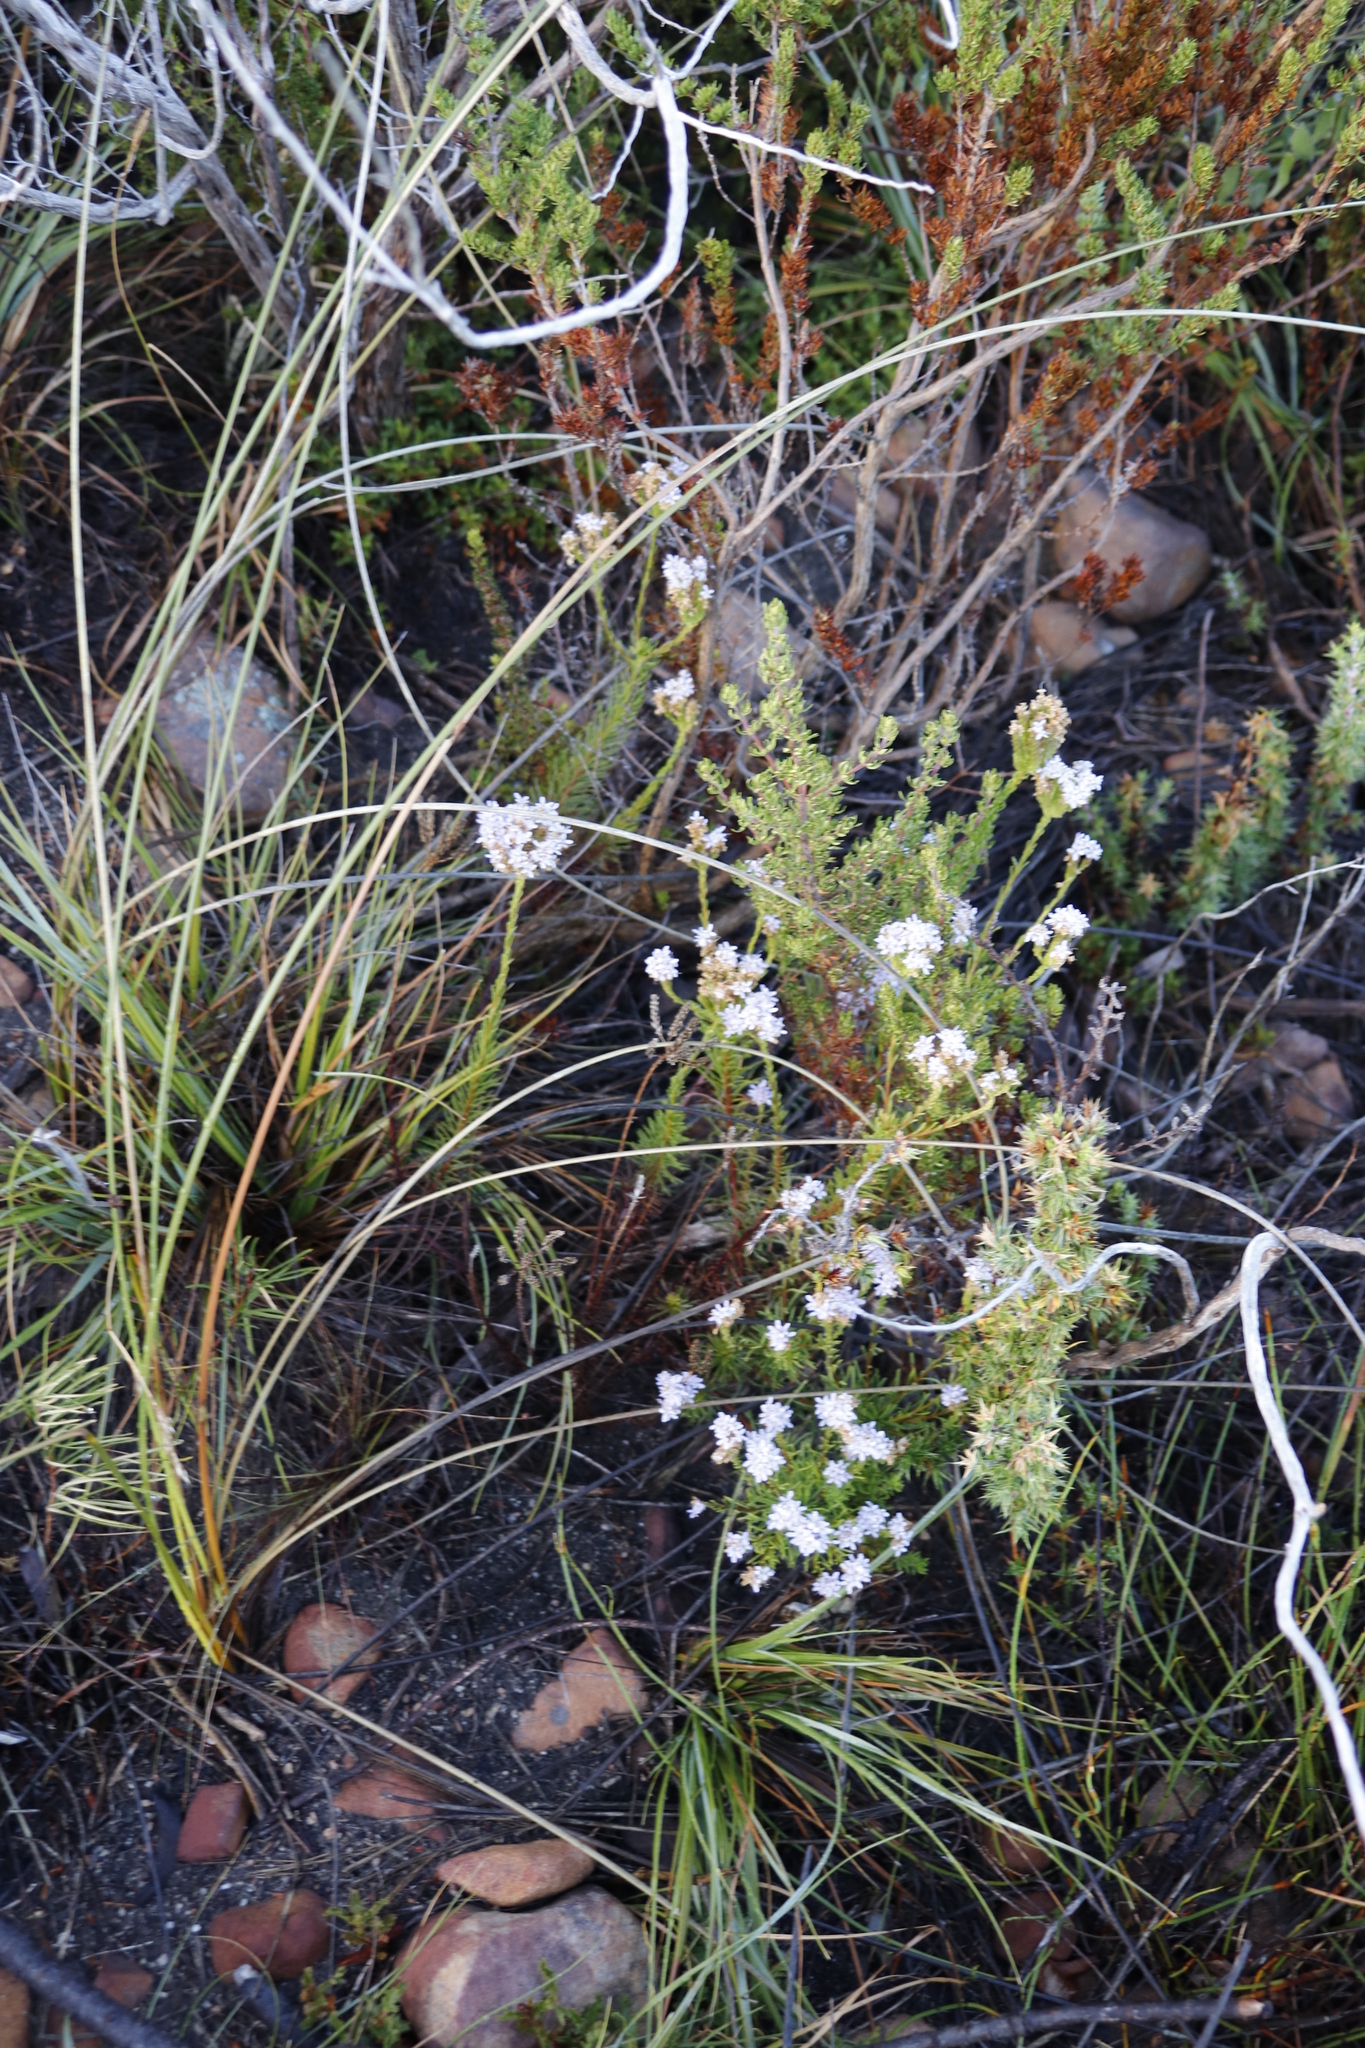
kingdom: Plantae
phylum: Tracheophyta
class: Magnoliopsida
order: Lamiales
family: Scrophulariaceae
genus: Pseudoselago
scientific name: Pseudoselago spuria
